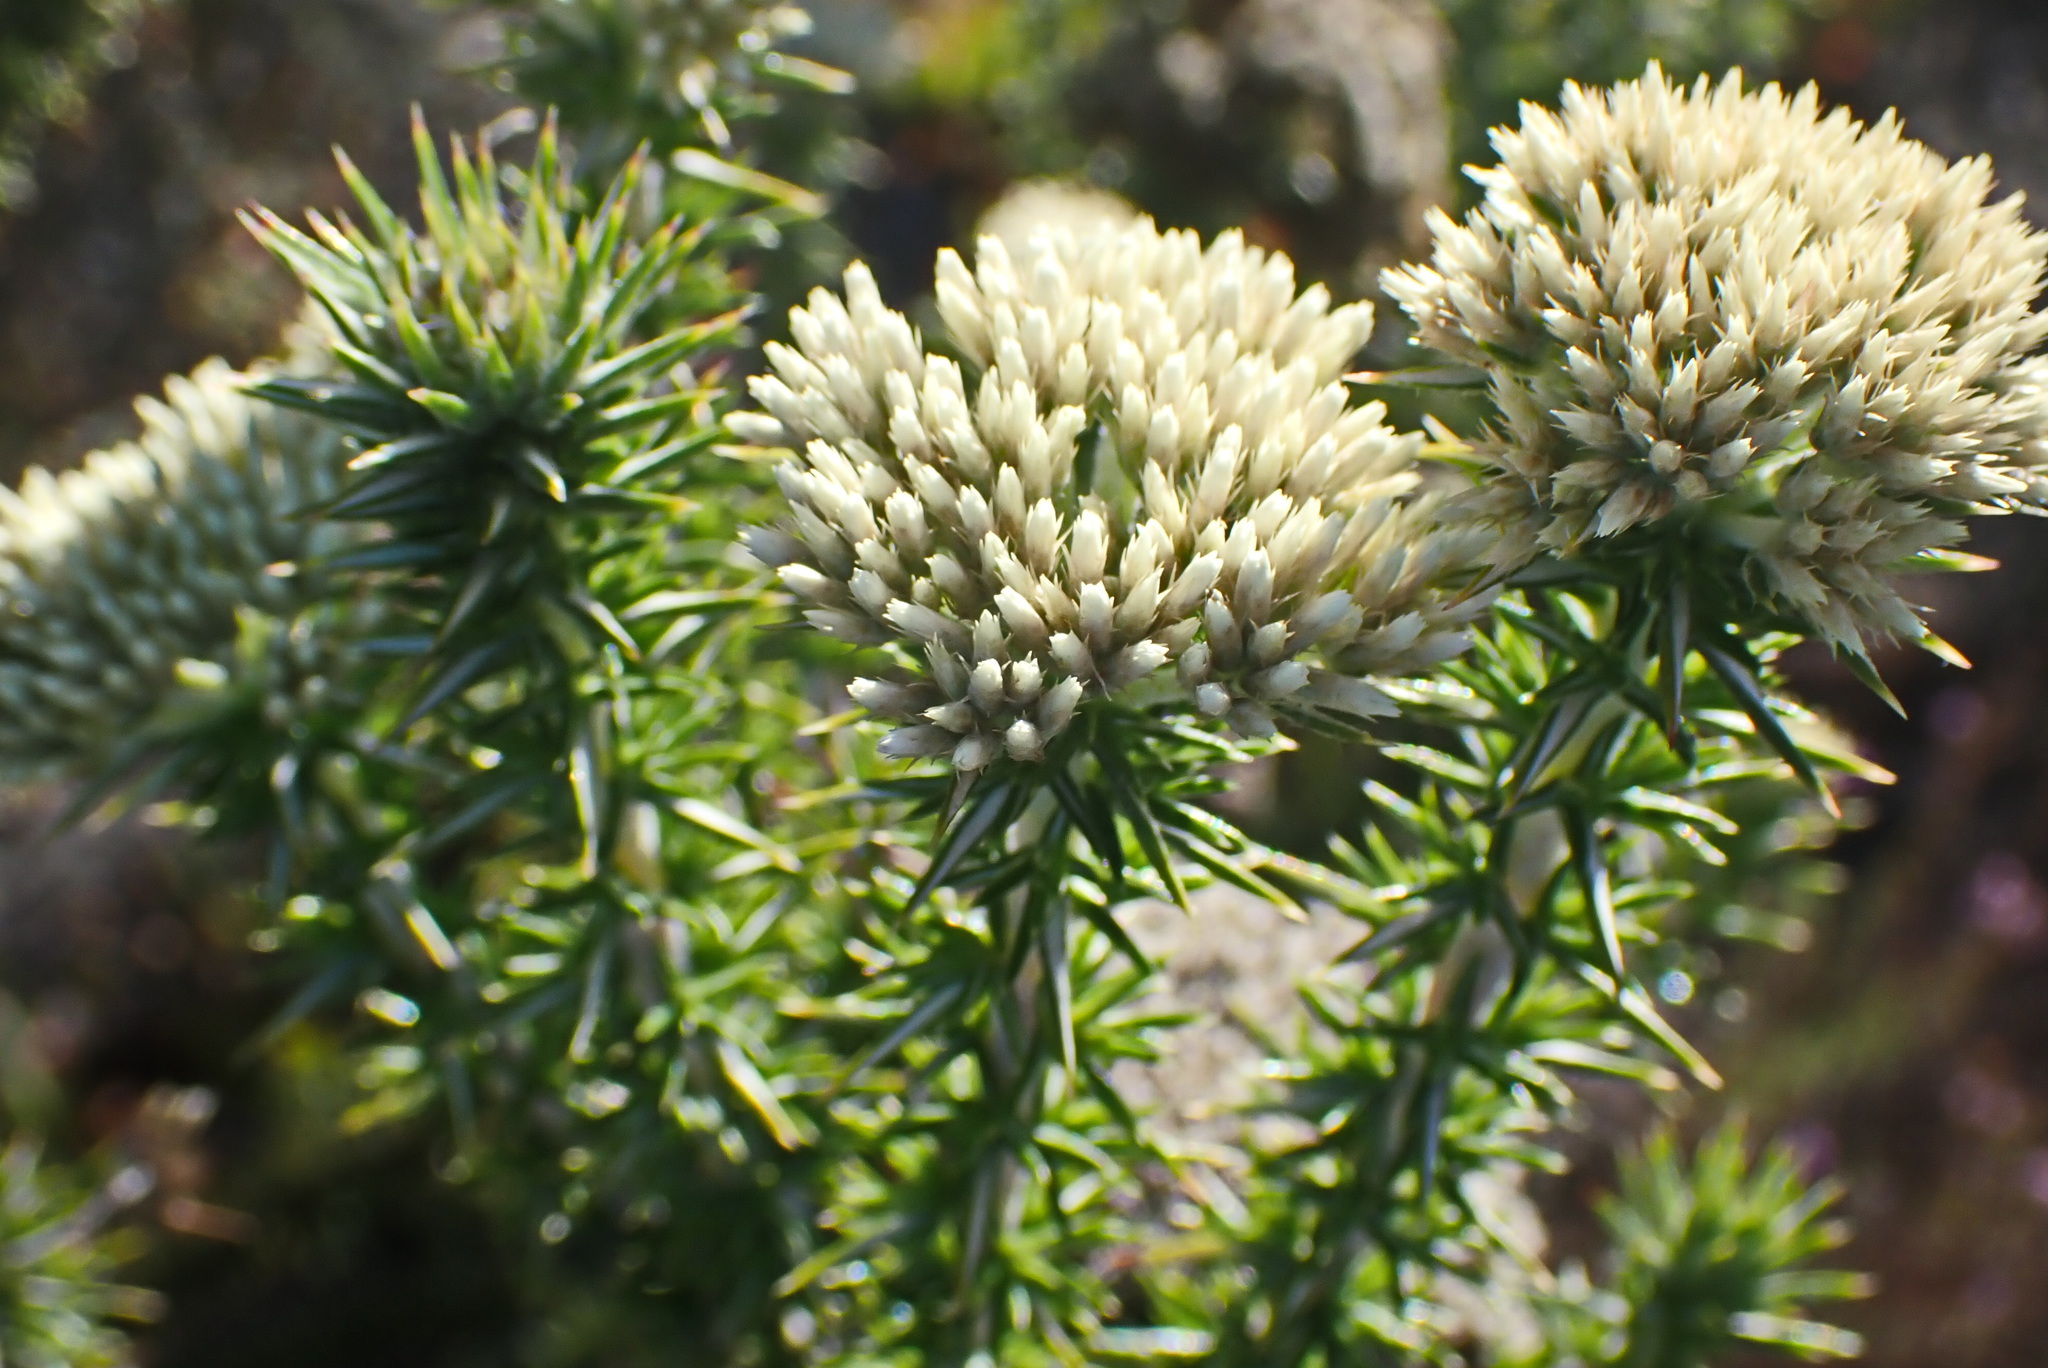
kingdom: Plantae
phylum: Tracheophyta
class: Magnoliopsida
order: Asterales
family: Asteraceae
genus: Metalasia
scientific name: Metalasia acuta
